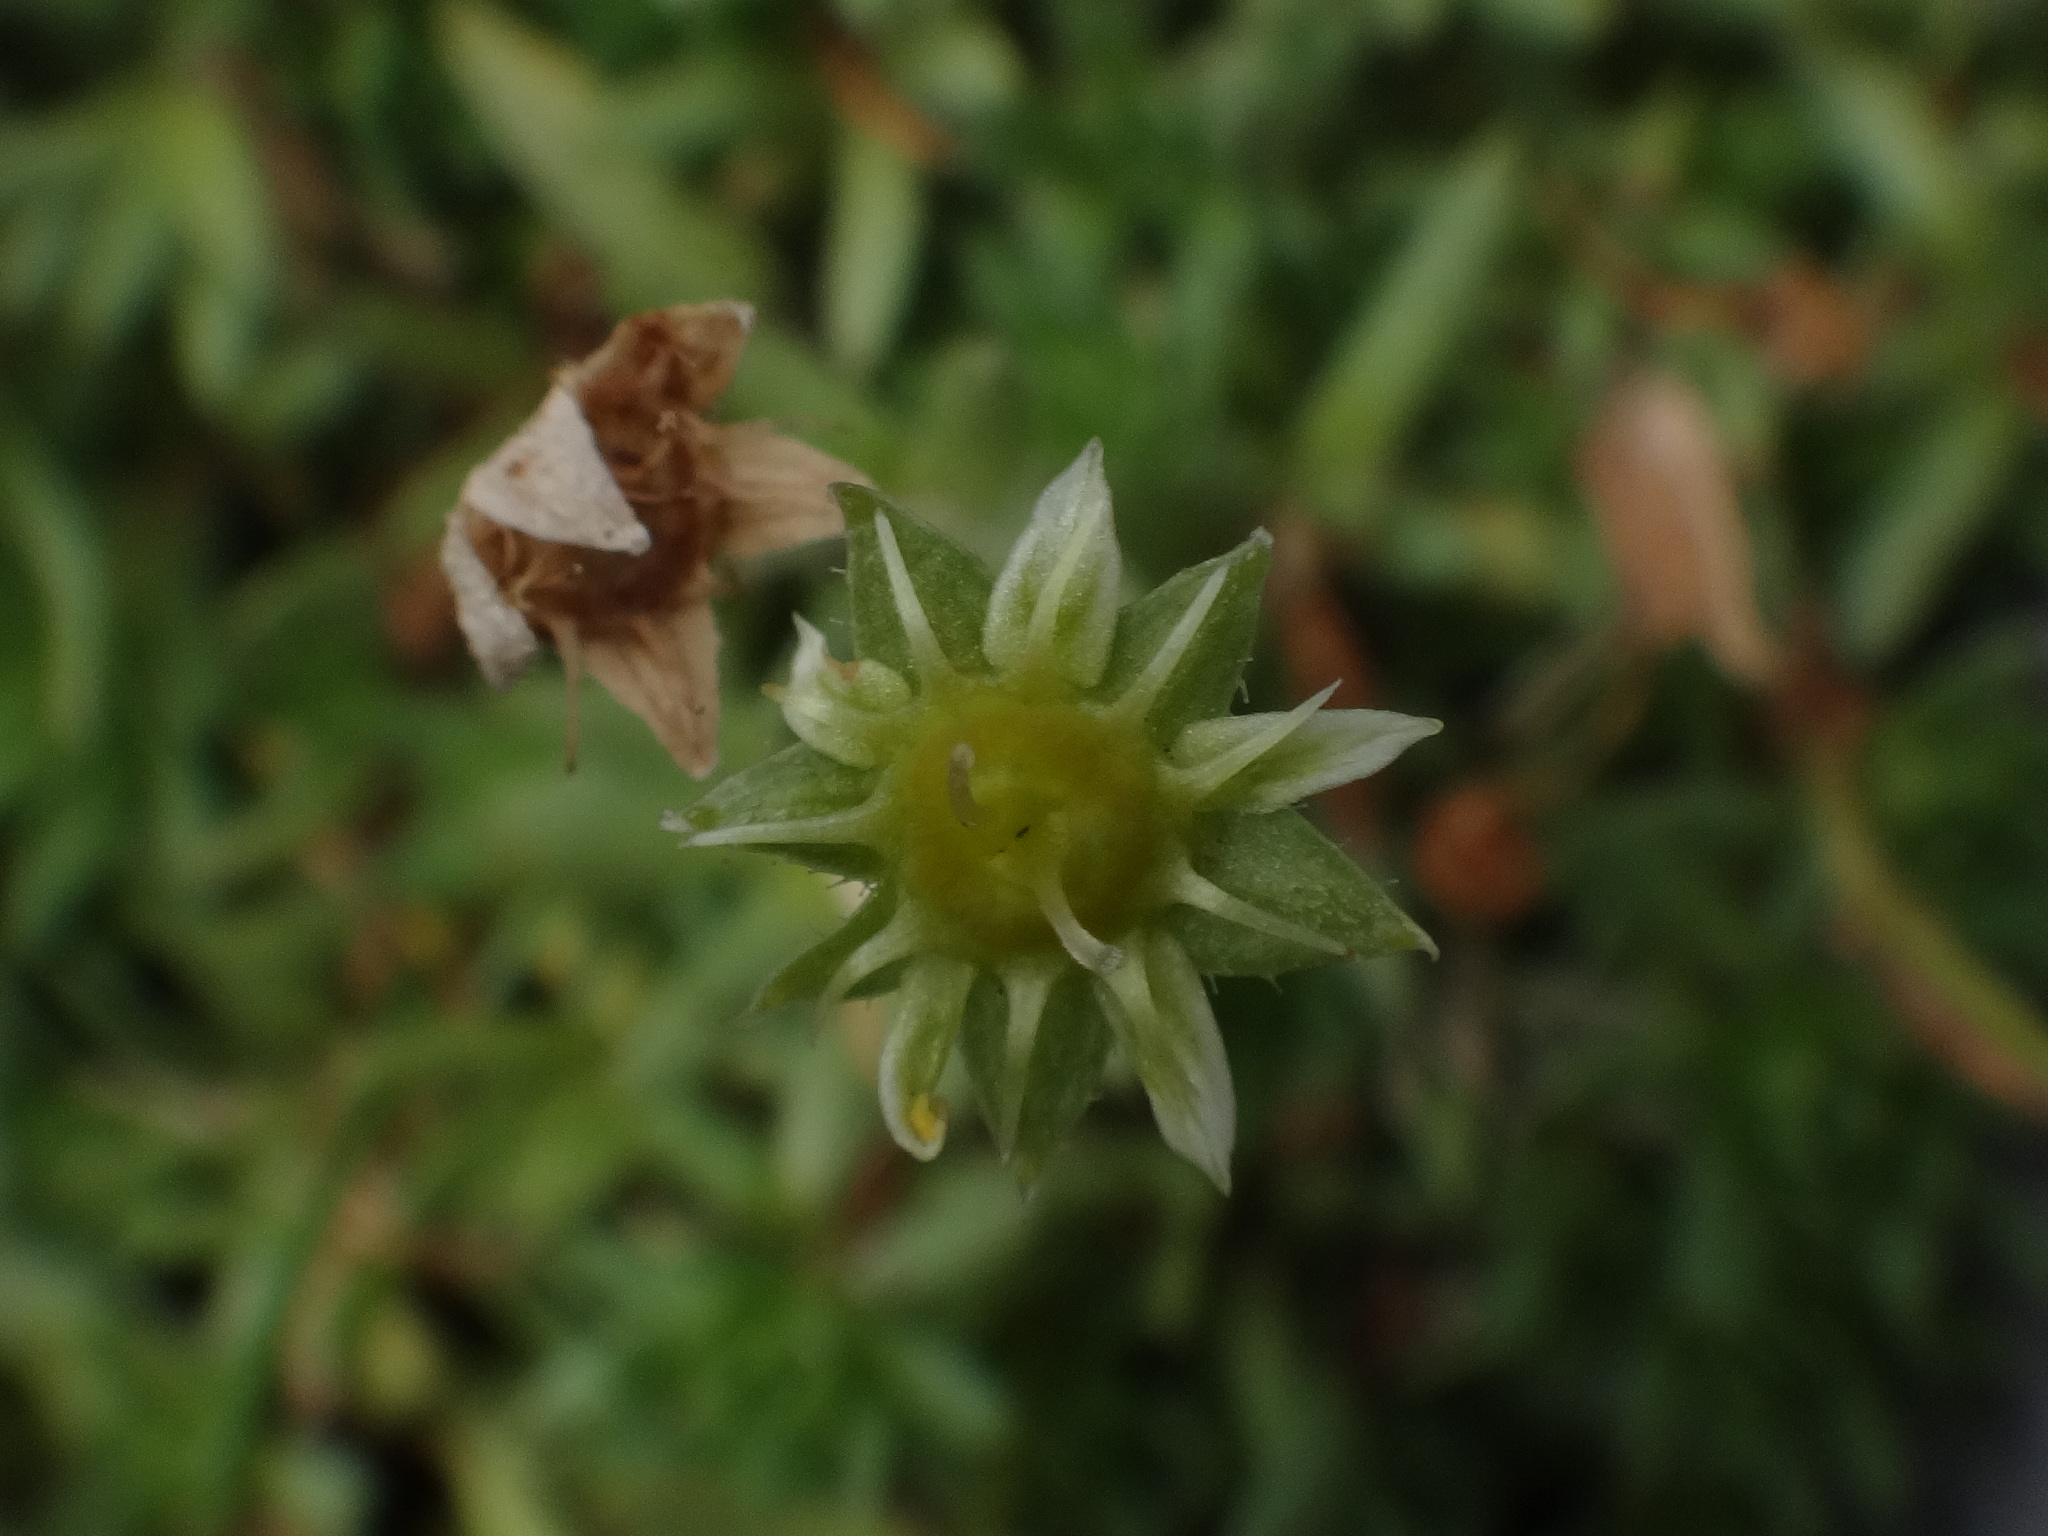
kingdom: Plantae
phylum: Tracheophyta
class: Magnoliopsida
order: Saxifragales
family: Saxifragaceae
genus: Saxifraga
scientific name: Saxifraga sedoides
